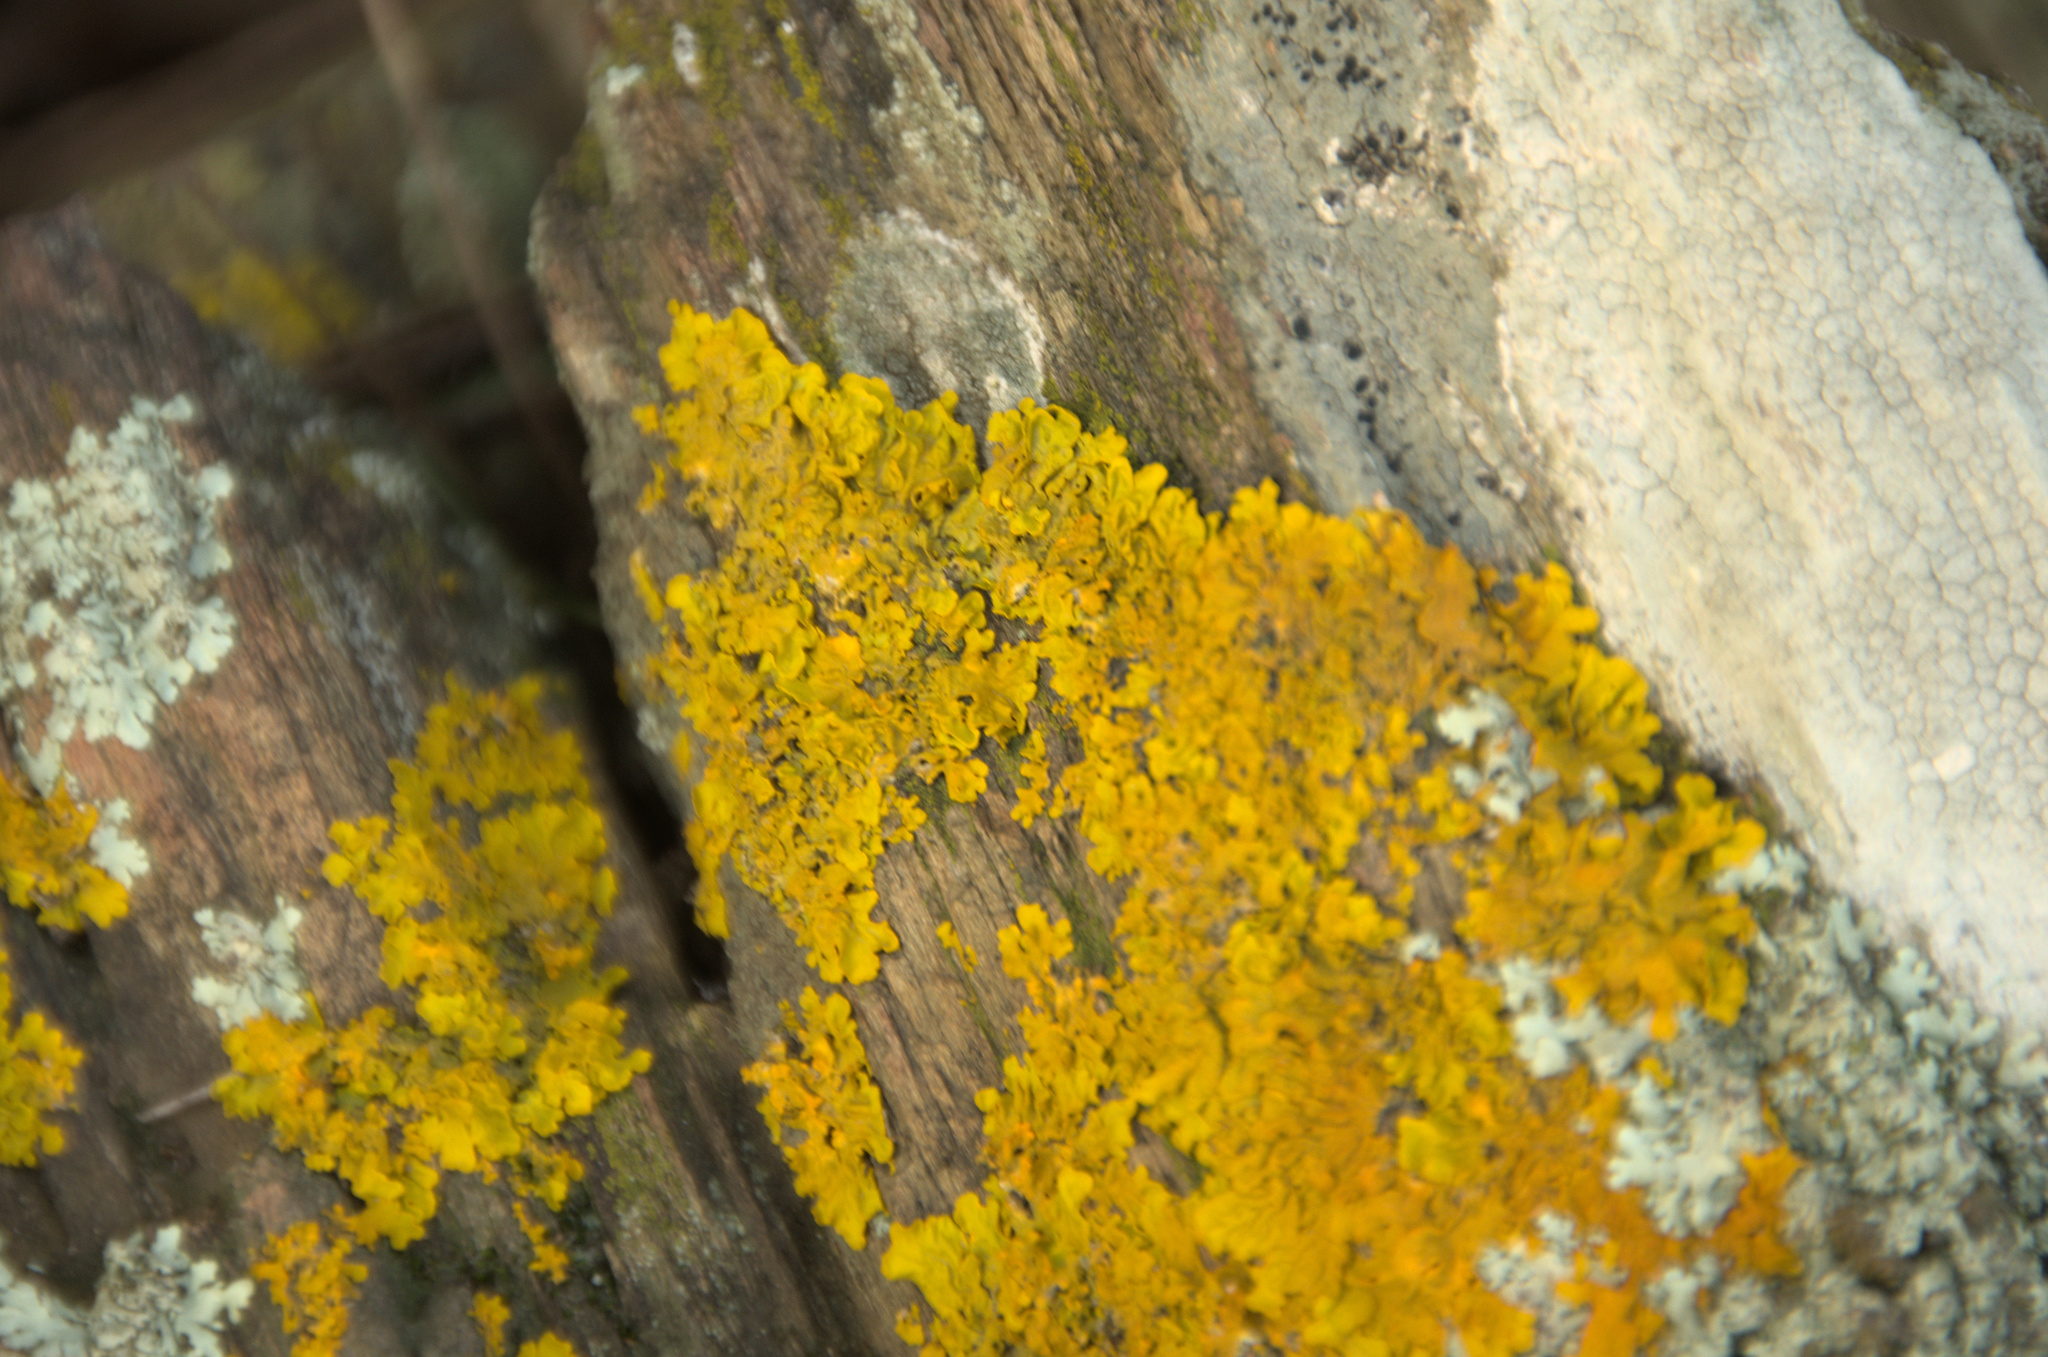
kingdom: Fungi
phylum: Ascomycota
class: Lecanoromycetes
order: Teloschistales
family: Teloschistaceae
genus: Xanthoria
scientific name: Xanthoria parietina
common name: Common orange lichen
